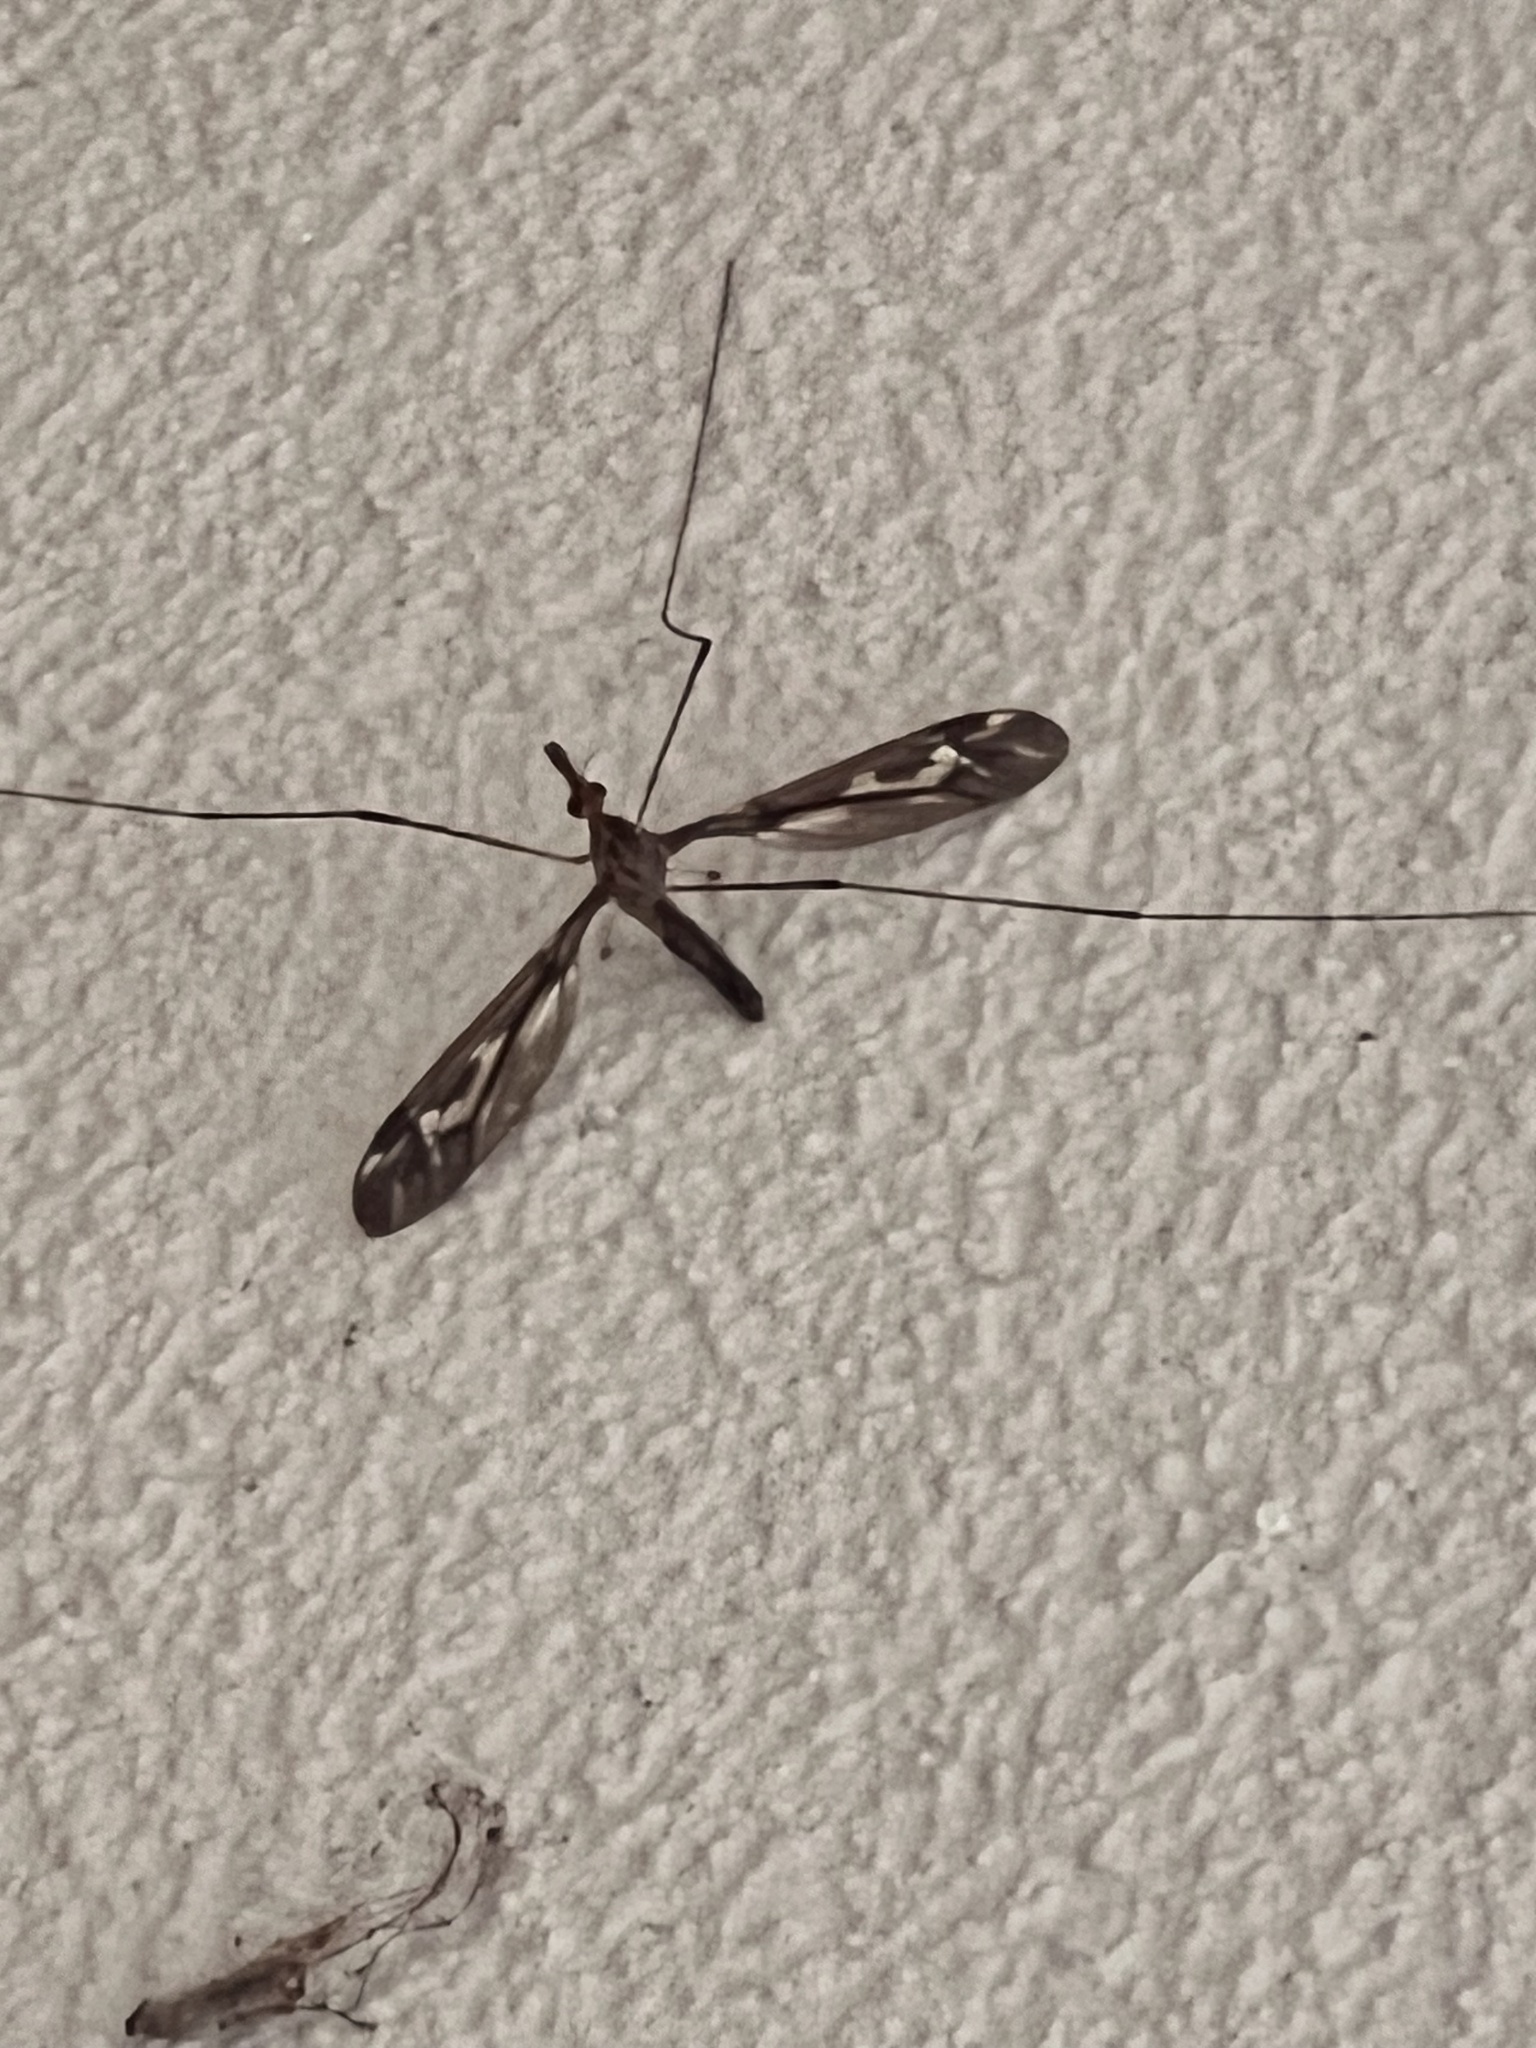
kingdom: Animalia
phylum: Arthropoda
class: Insecta
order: Diptera
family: Tipulidae
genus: Leptotarsus
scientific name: Leptotarsus huttoni
